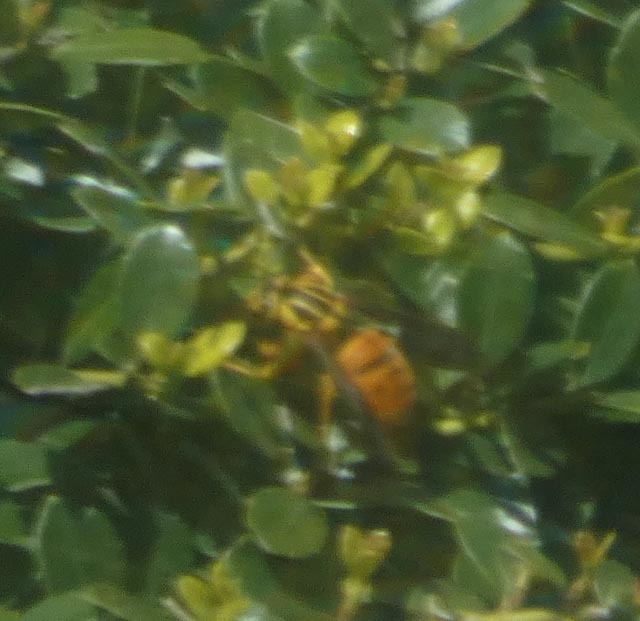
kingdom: Animalia
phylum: Arthropoda
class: Insecta
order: Hymenoptera
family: Vespidae
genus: Vespula
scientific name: Vespula squamosa
